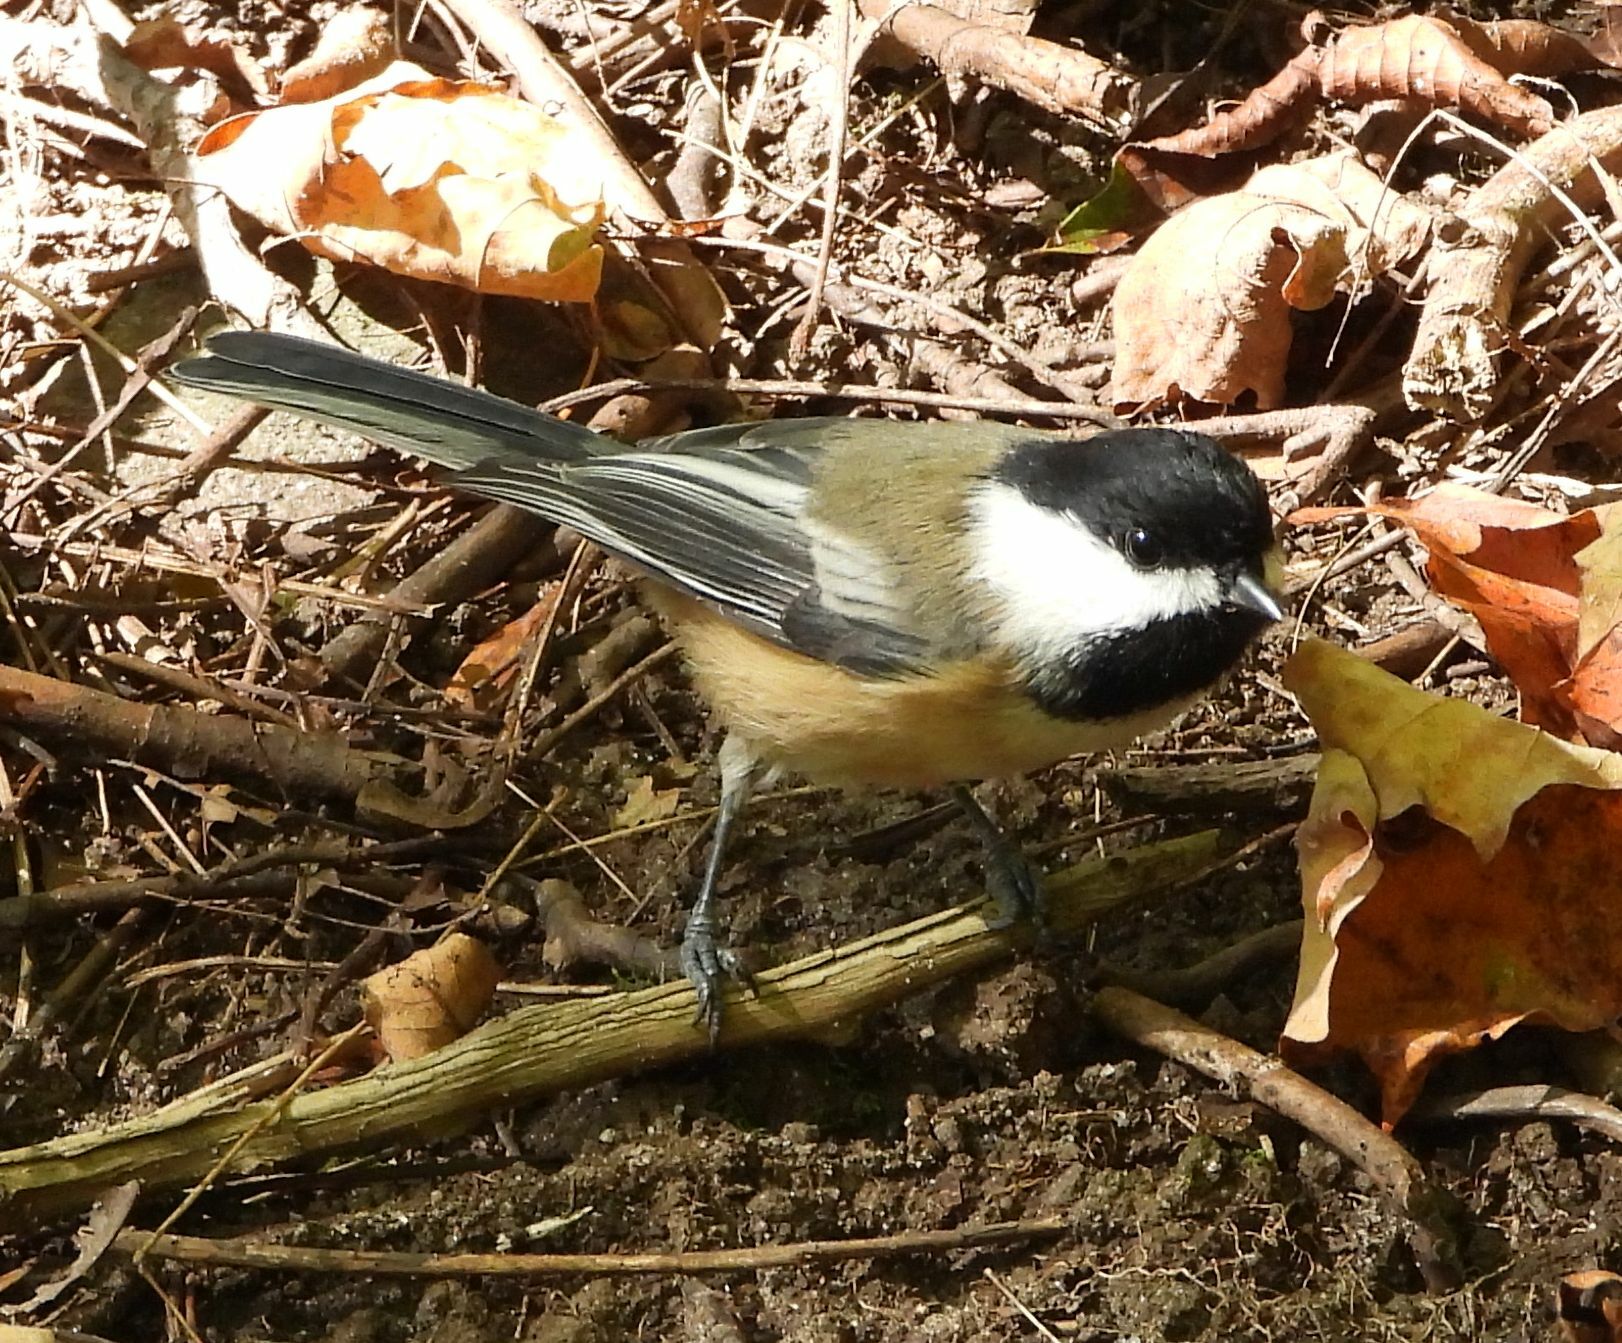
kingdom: Animalia
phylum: Chordata
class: Aves
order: Passeriformes
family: Paridae
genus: Poecile
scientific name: Poecile atricapillus
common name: Black-capped chickadee
